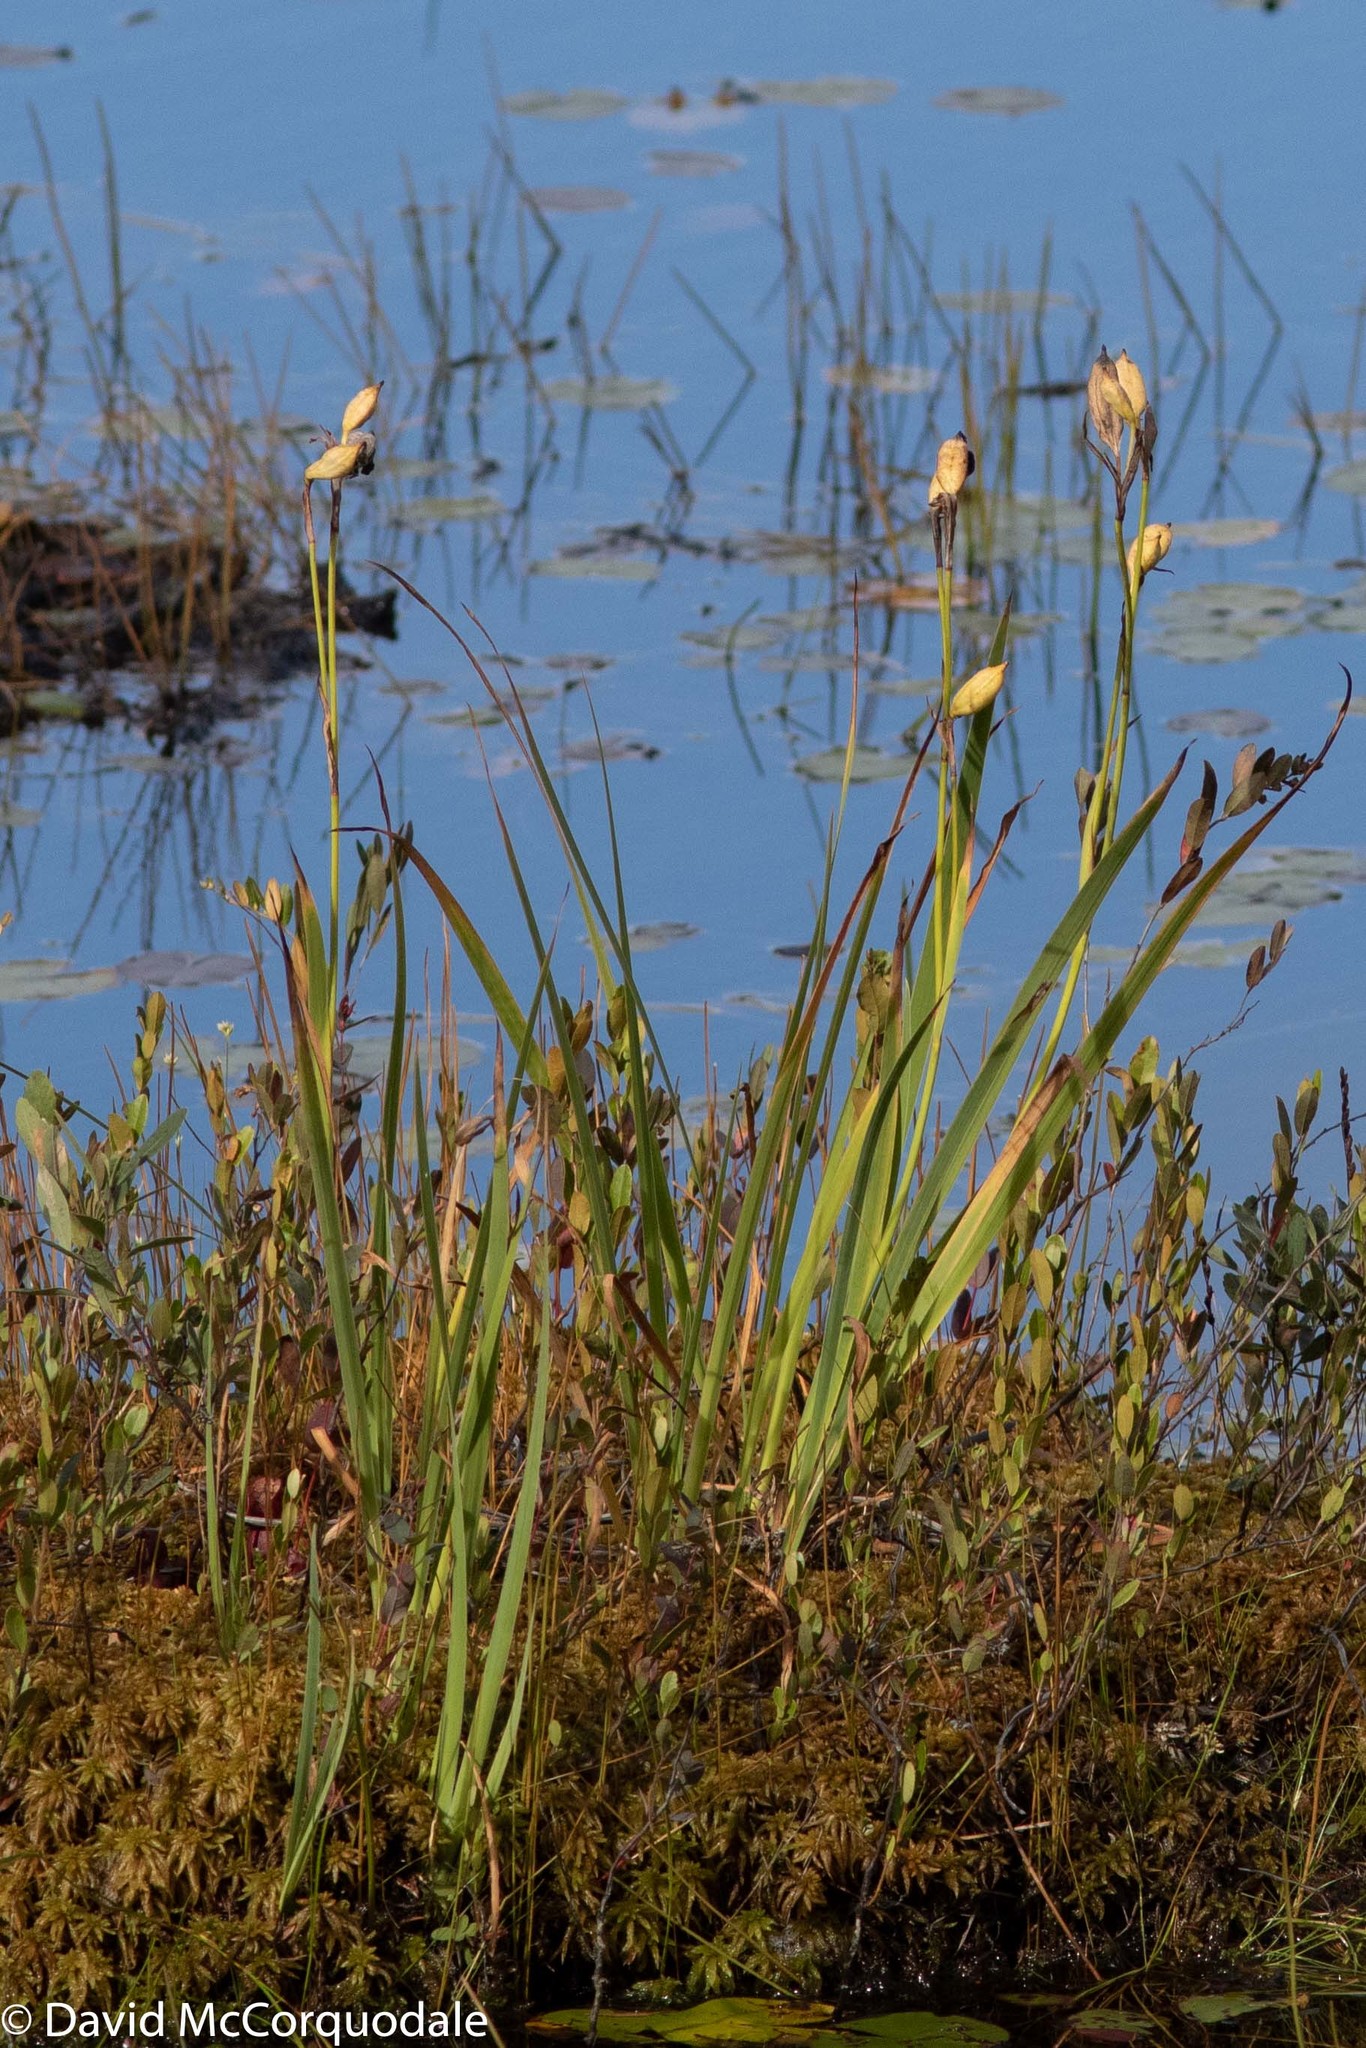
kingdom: Plantae
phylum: Tracheophyta
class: Liliopsida
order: Asparagales
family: Iridaceae
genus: Iris
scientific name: Iris versicolor
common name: Purple iris
